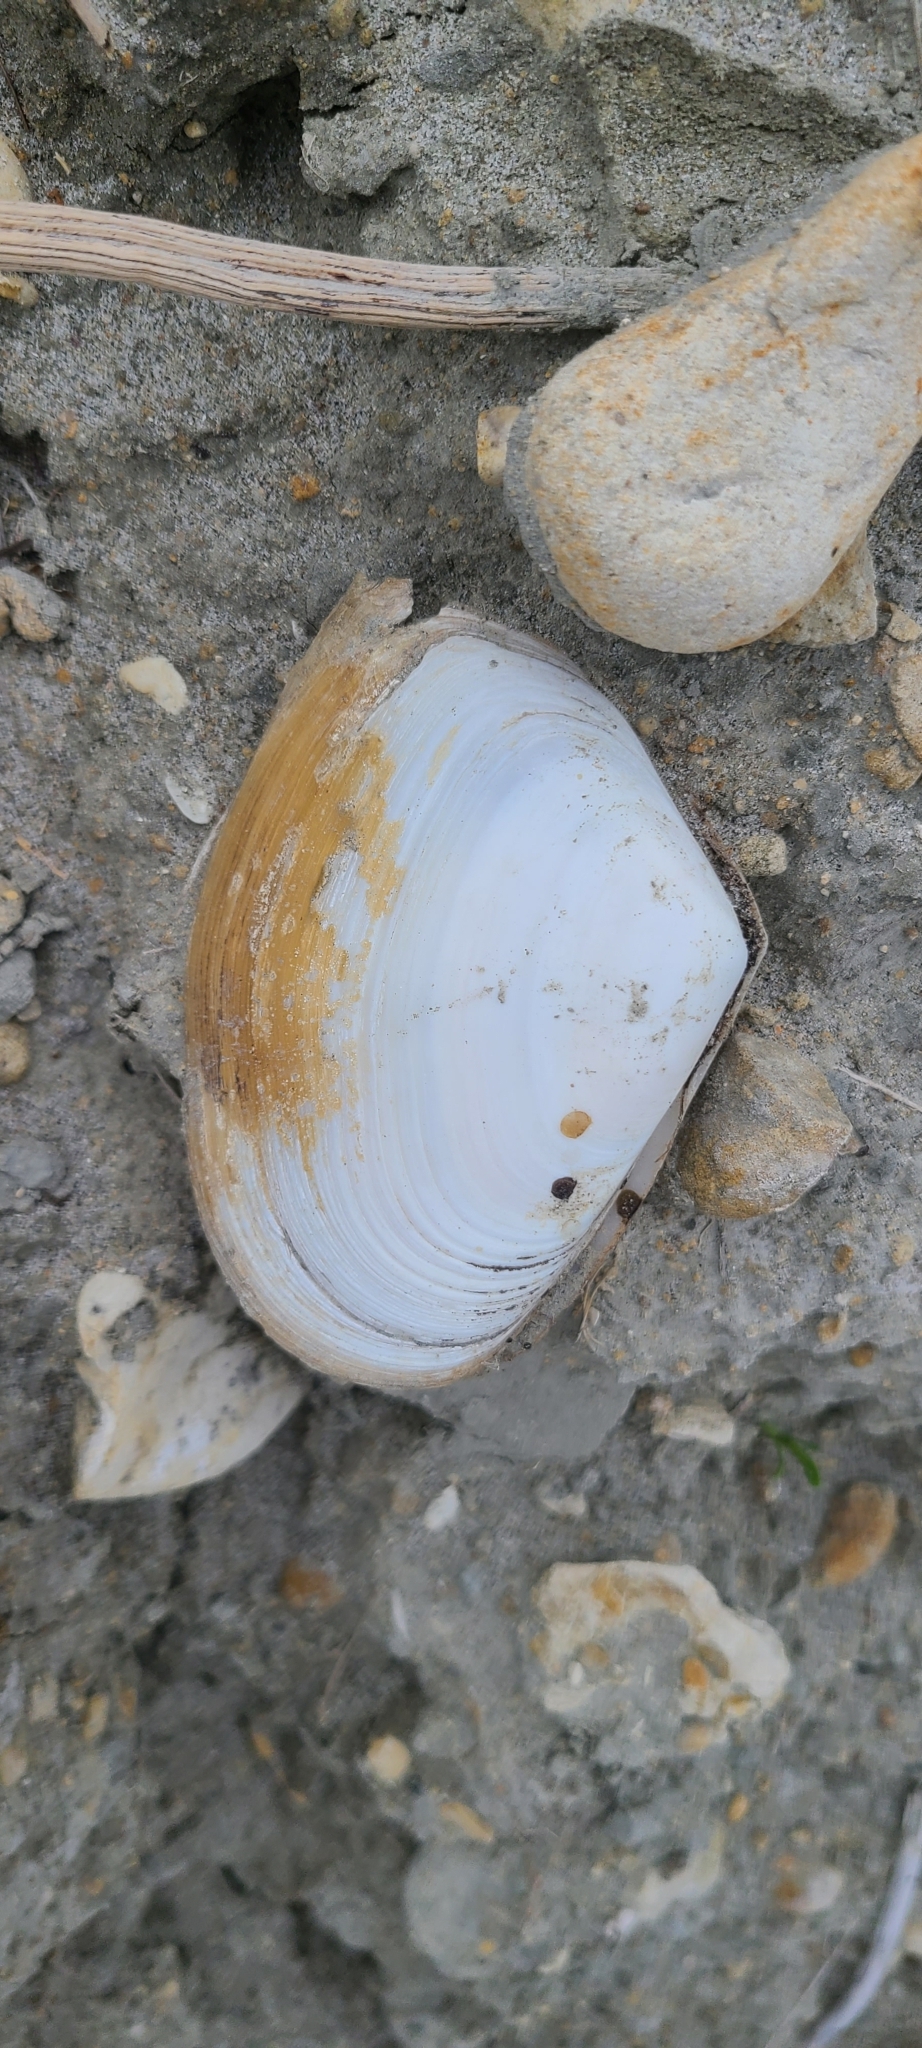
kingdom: Animalia
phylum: Mollusca
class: Bivalvia
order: Venerida
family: Mesodesmatidae
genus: Paphies
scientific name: Paphies donacina
